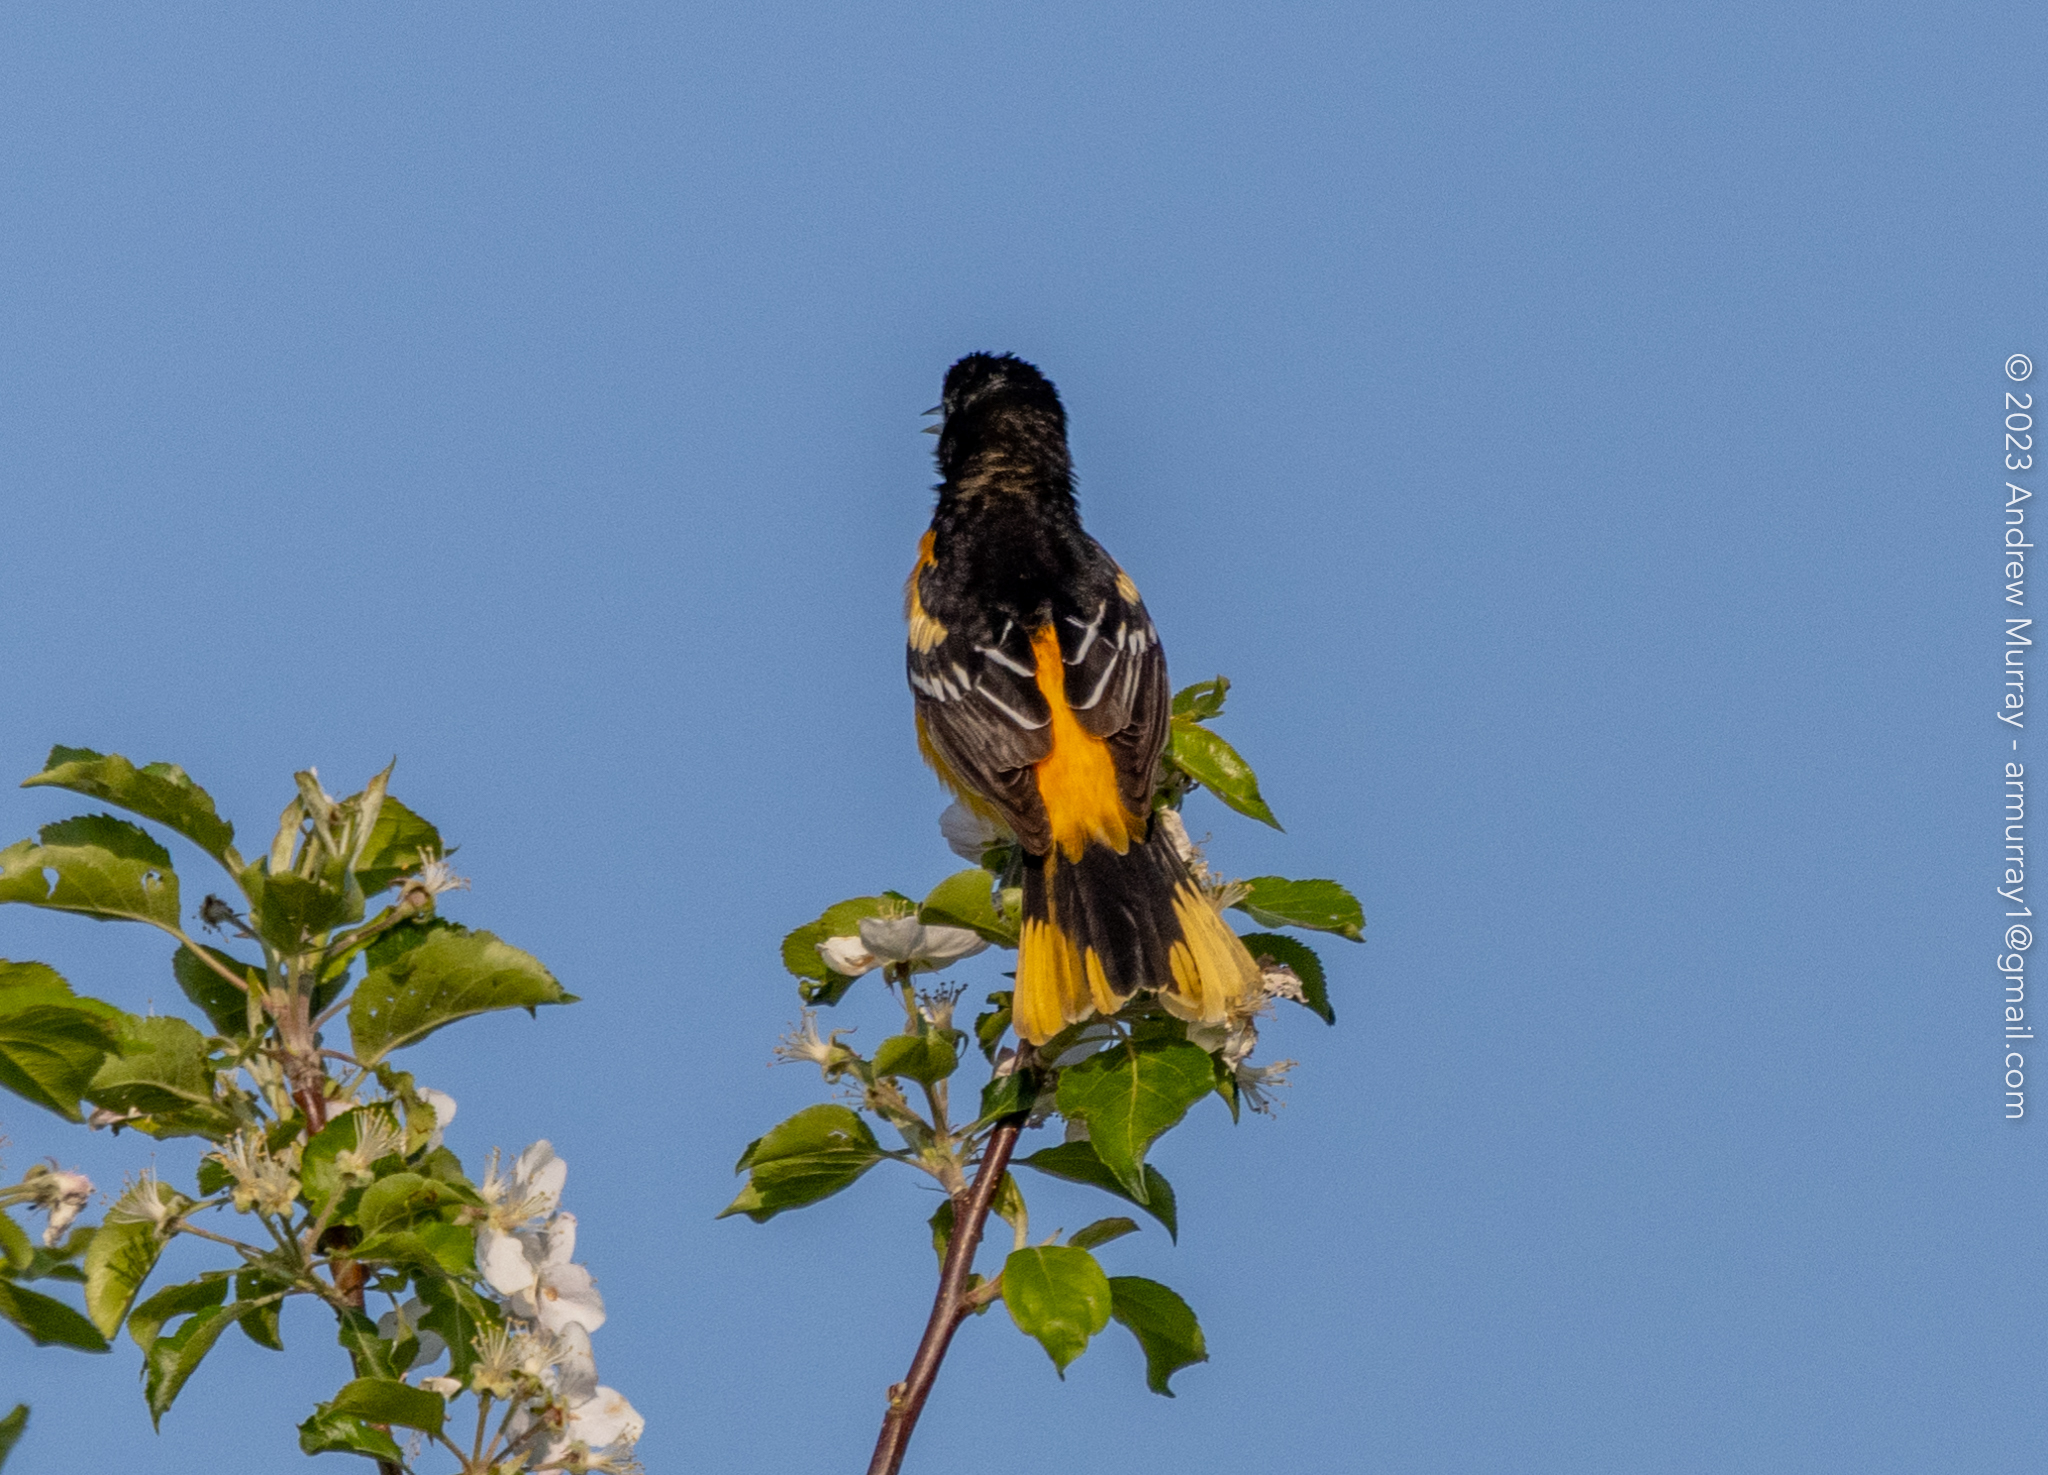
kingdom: Animalia
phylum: Chordata
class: Aves
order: Passeriformes
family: Icteridae
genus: Icterus
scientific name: Icterus galbula
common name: Baltimore oriole
